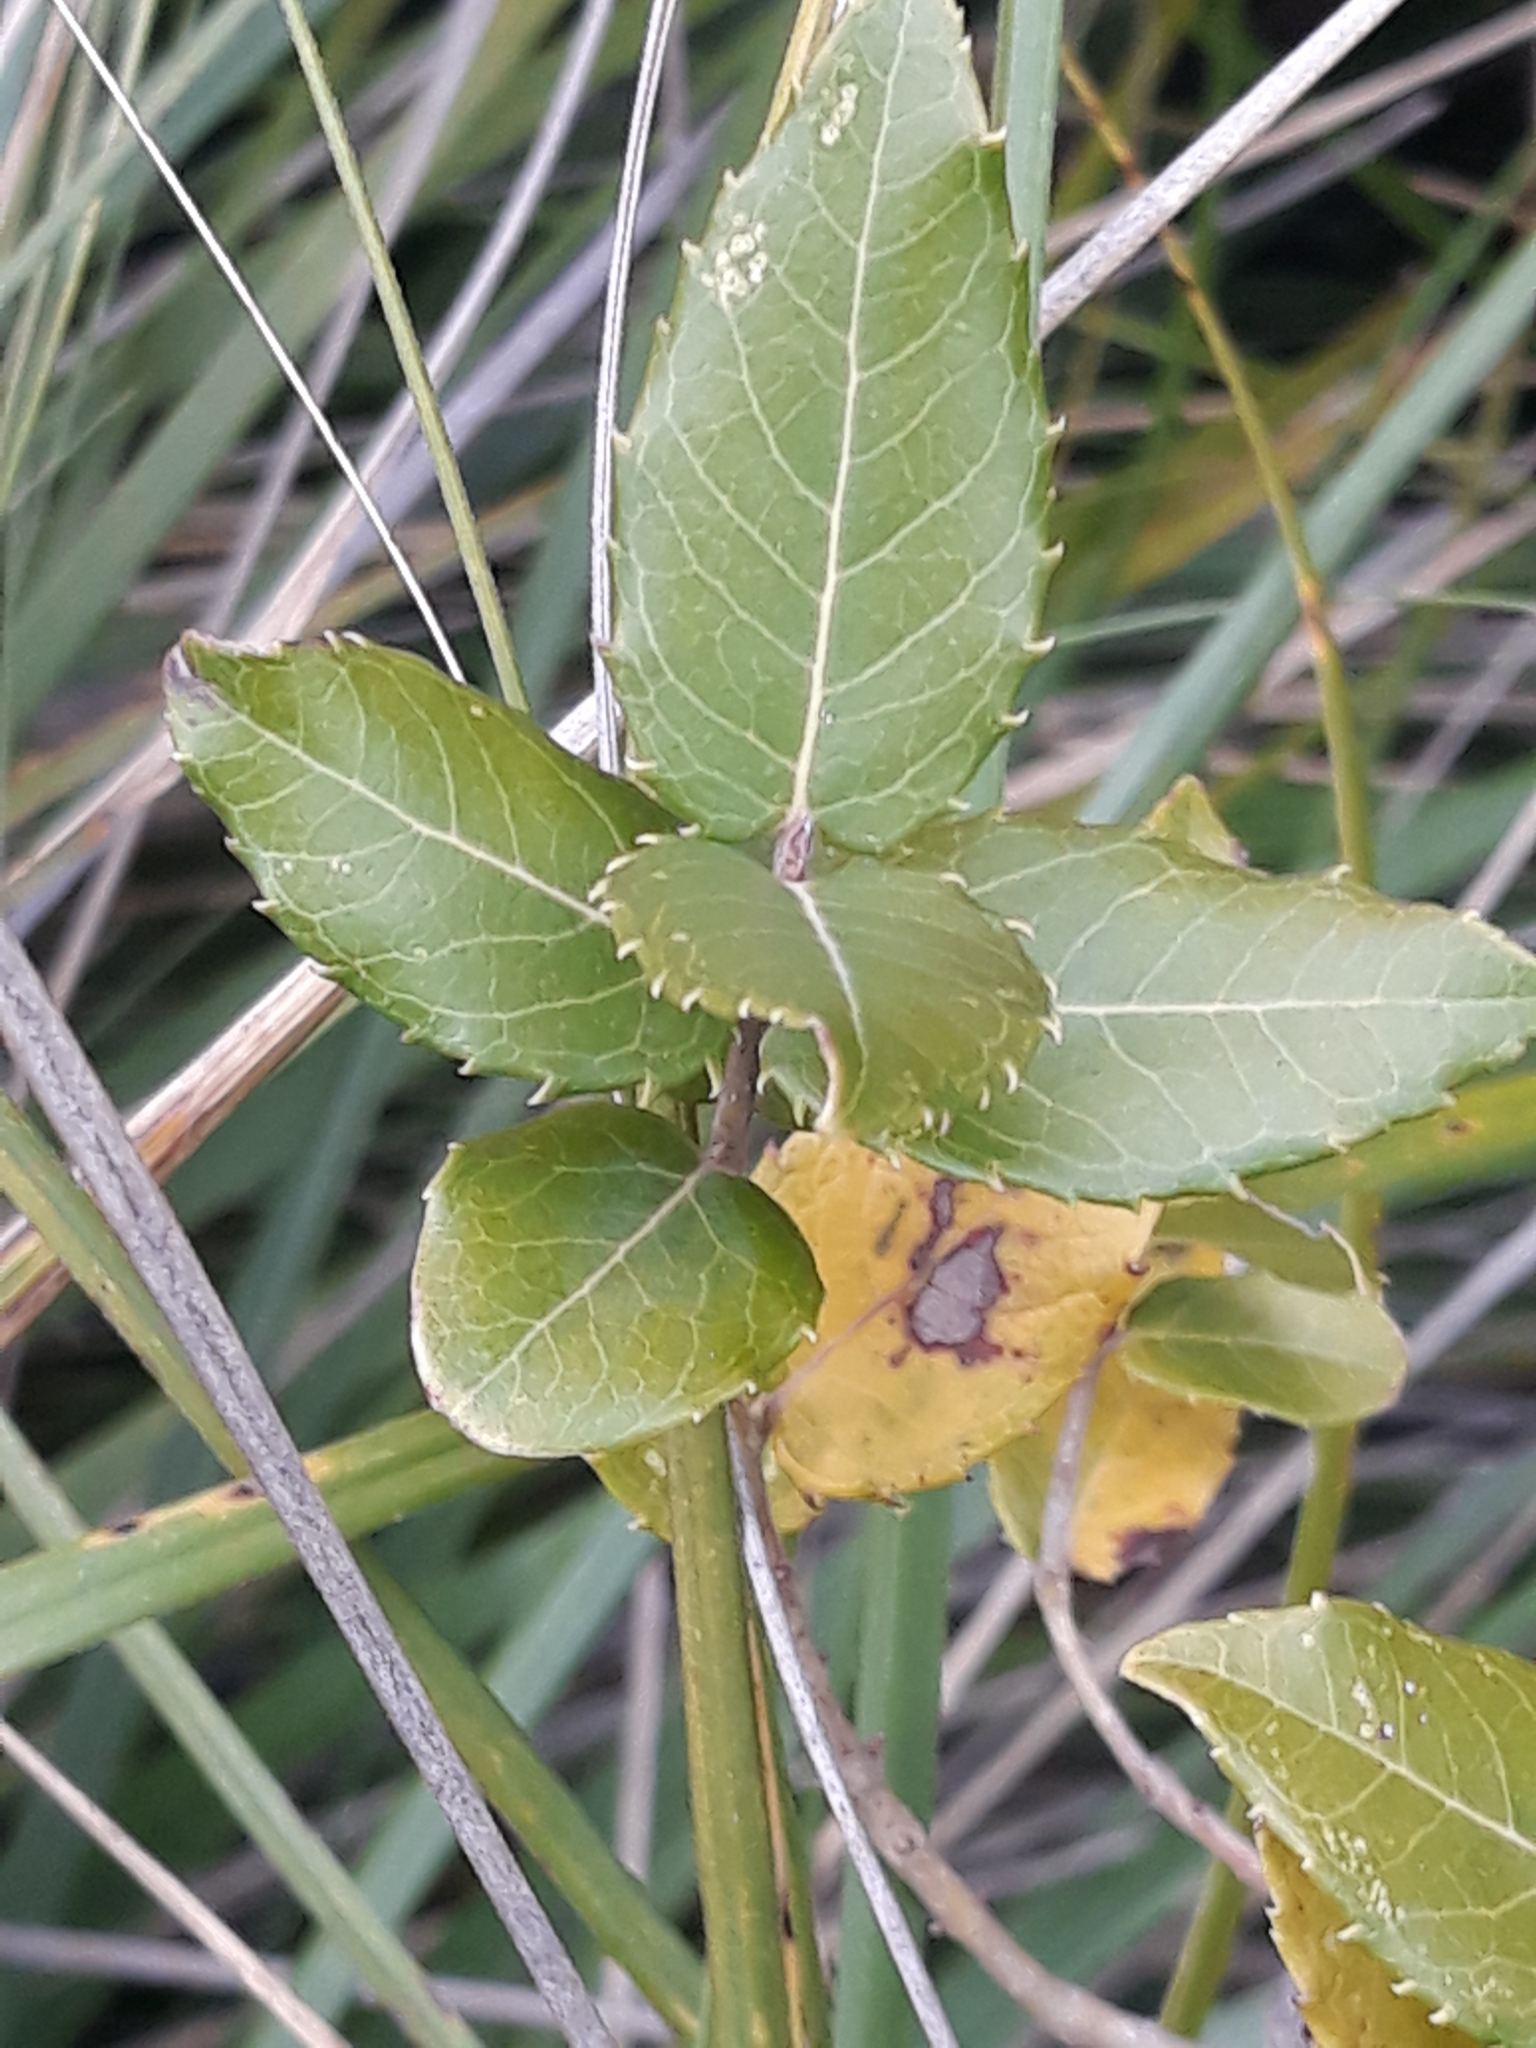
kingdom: Plantae
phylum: Tracheophyta
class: Magnoliopsida
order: Lamiales
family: Oleaceae
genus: Phillyrea
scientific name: Phillyrea latifolia
